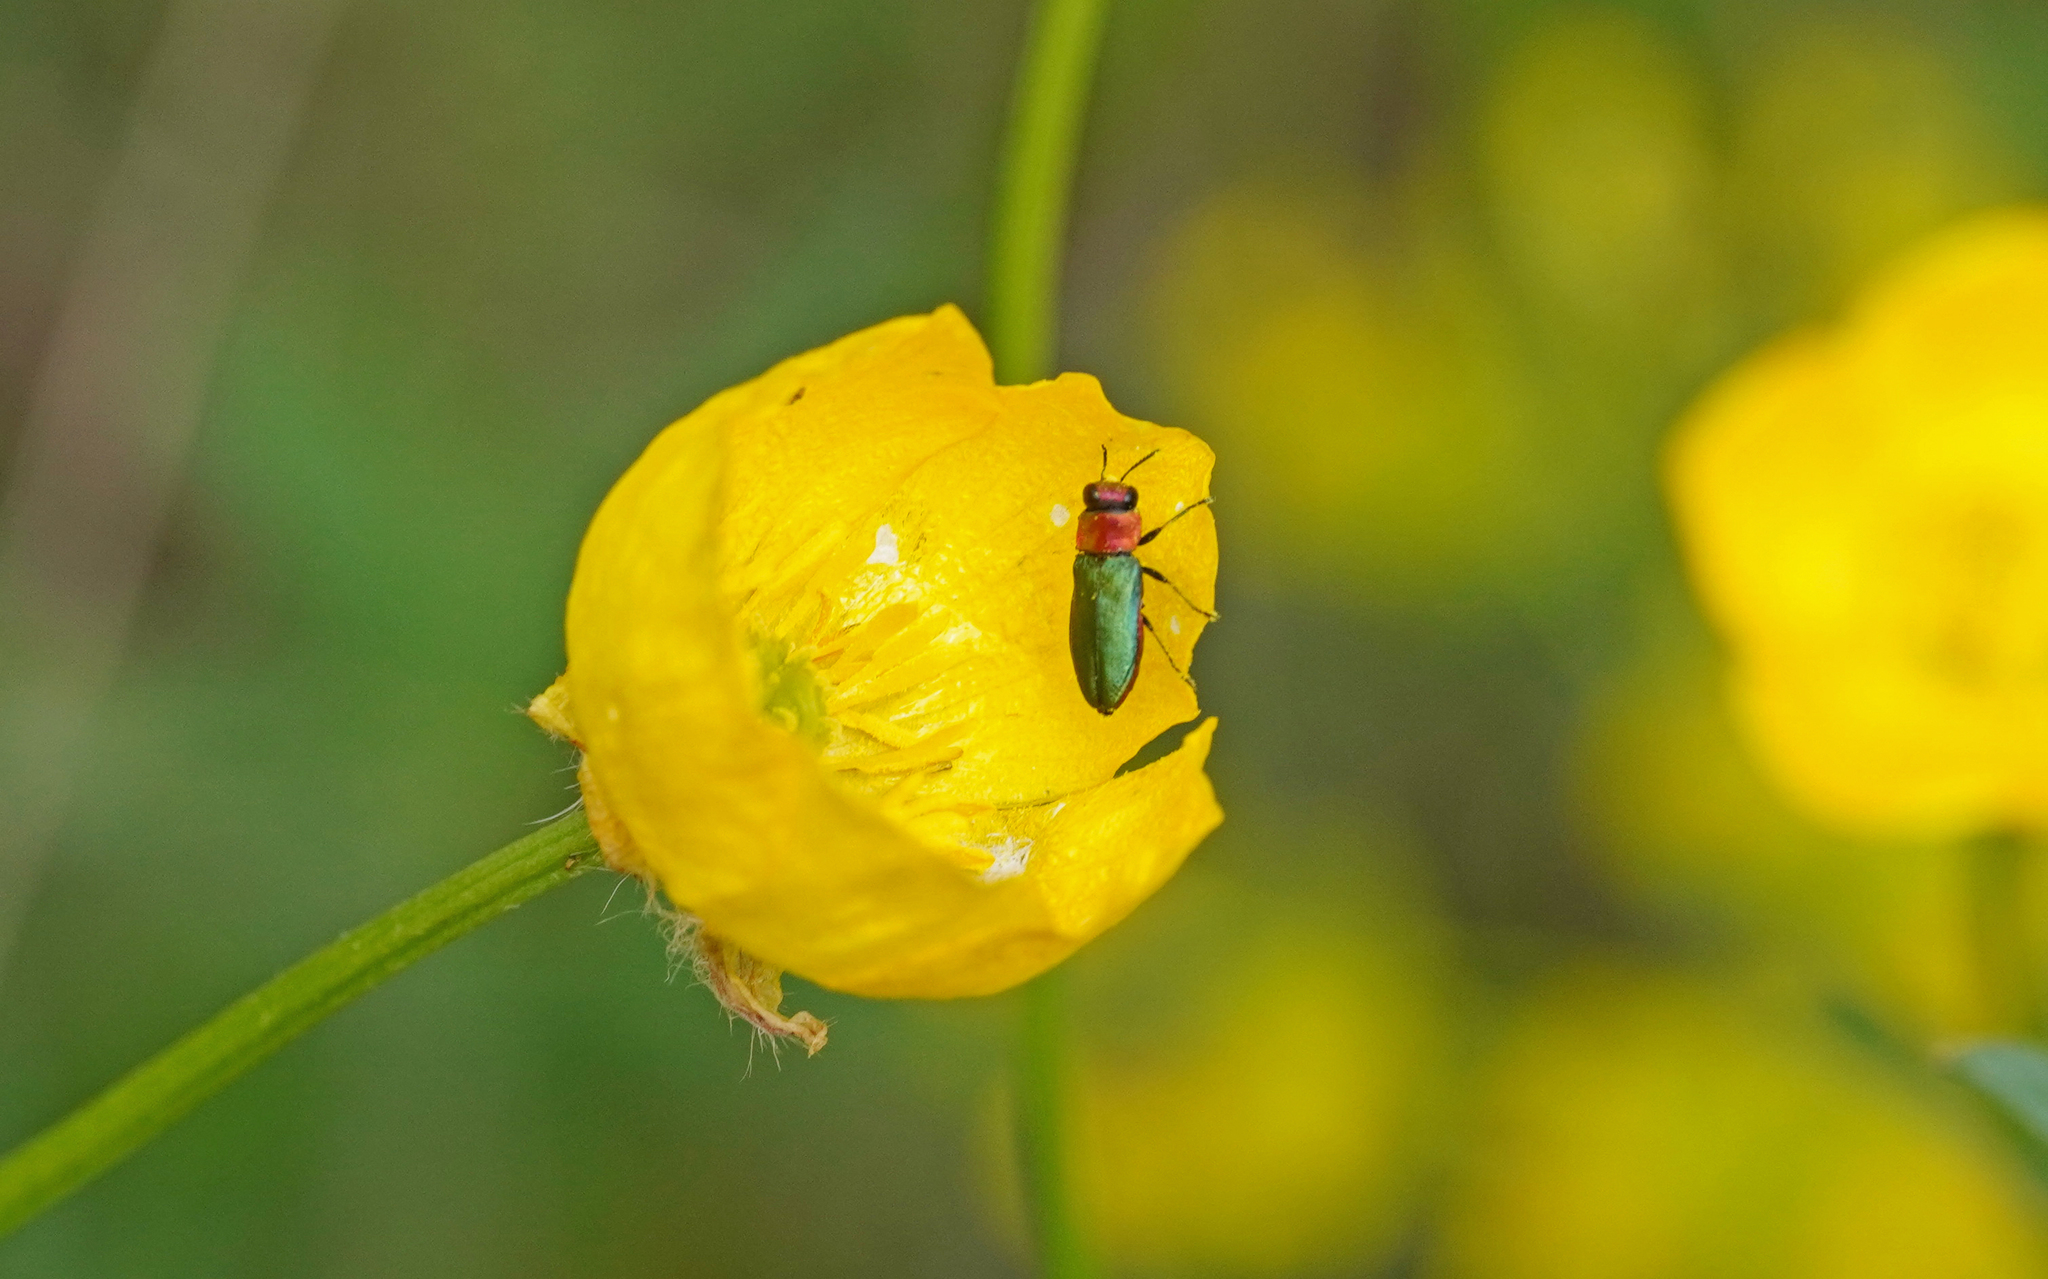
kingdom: Animalia
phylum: Arthropoda
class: Insecta
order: Coleoptera
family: Buprestidae
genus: Anthaxia
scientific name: Anthaxia nitidula
